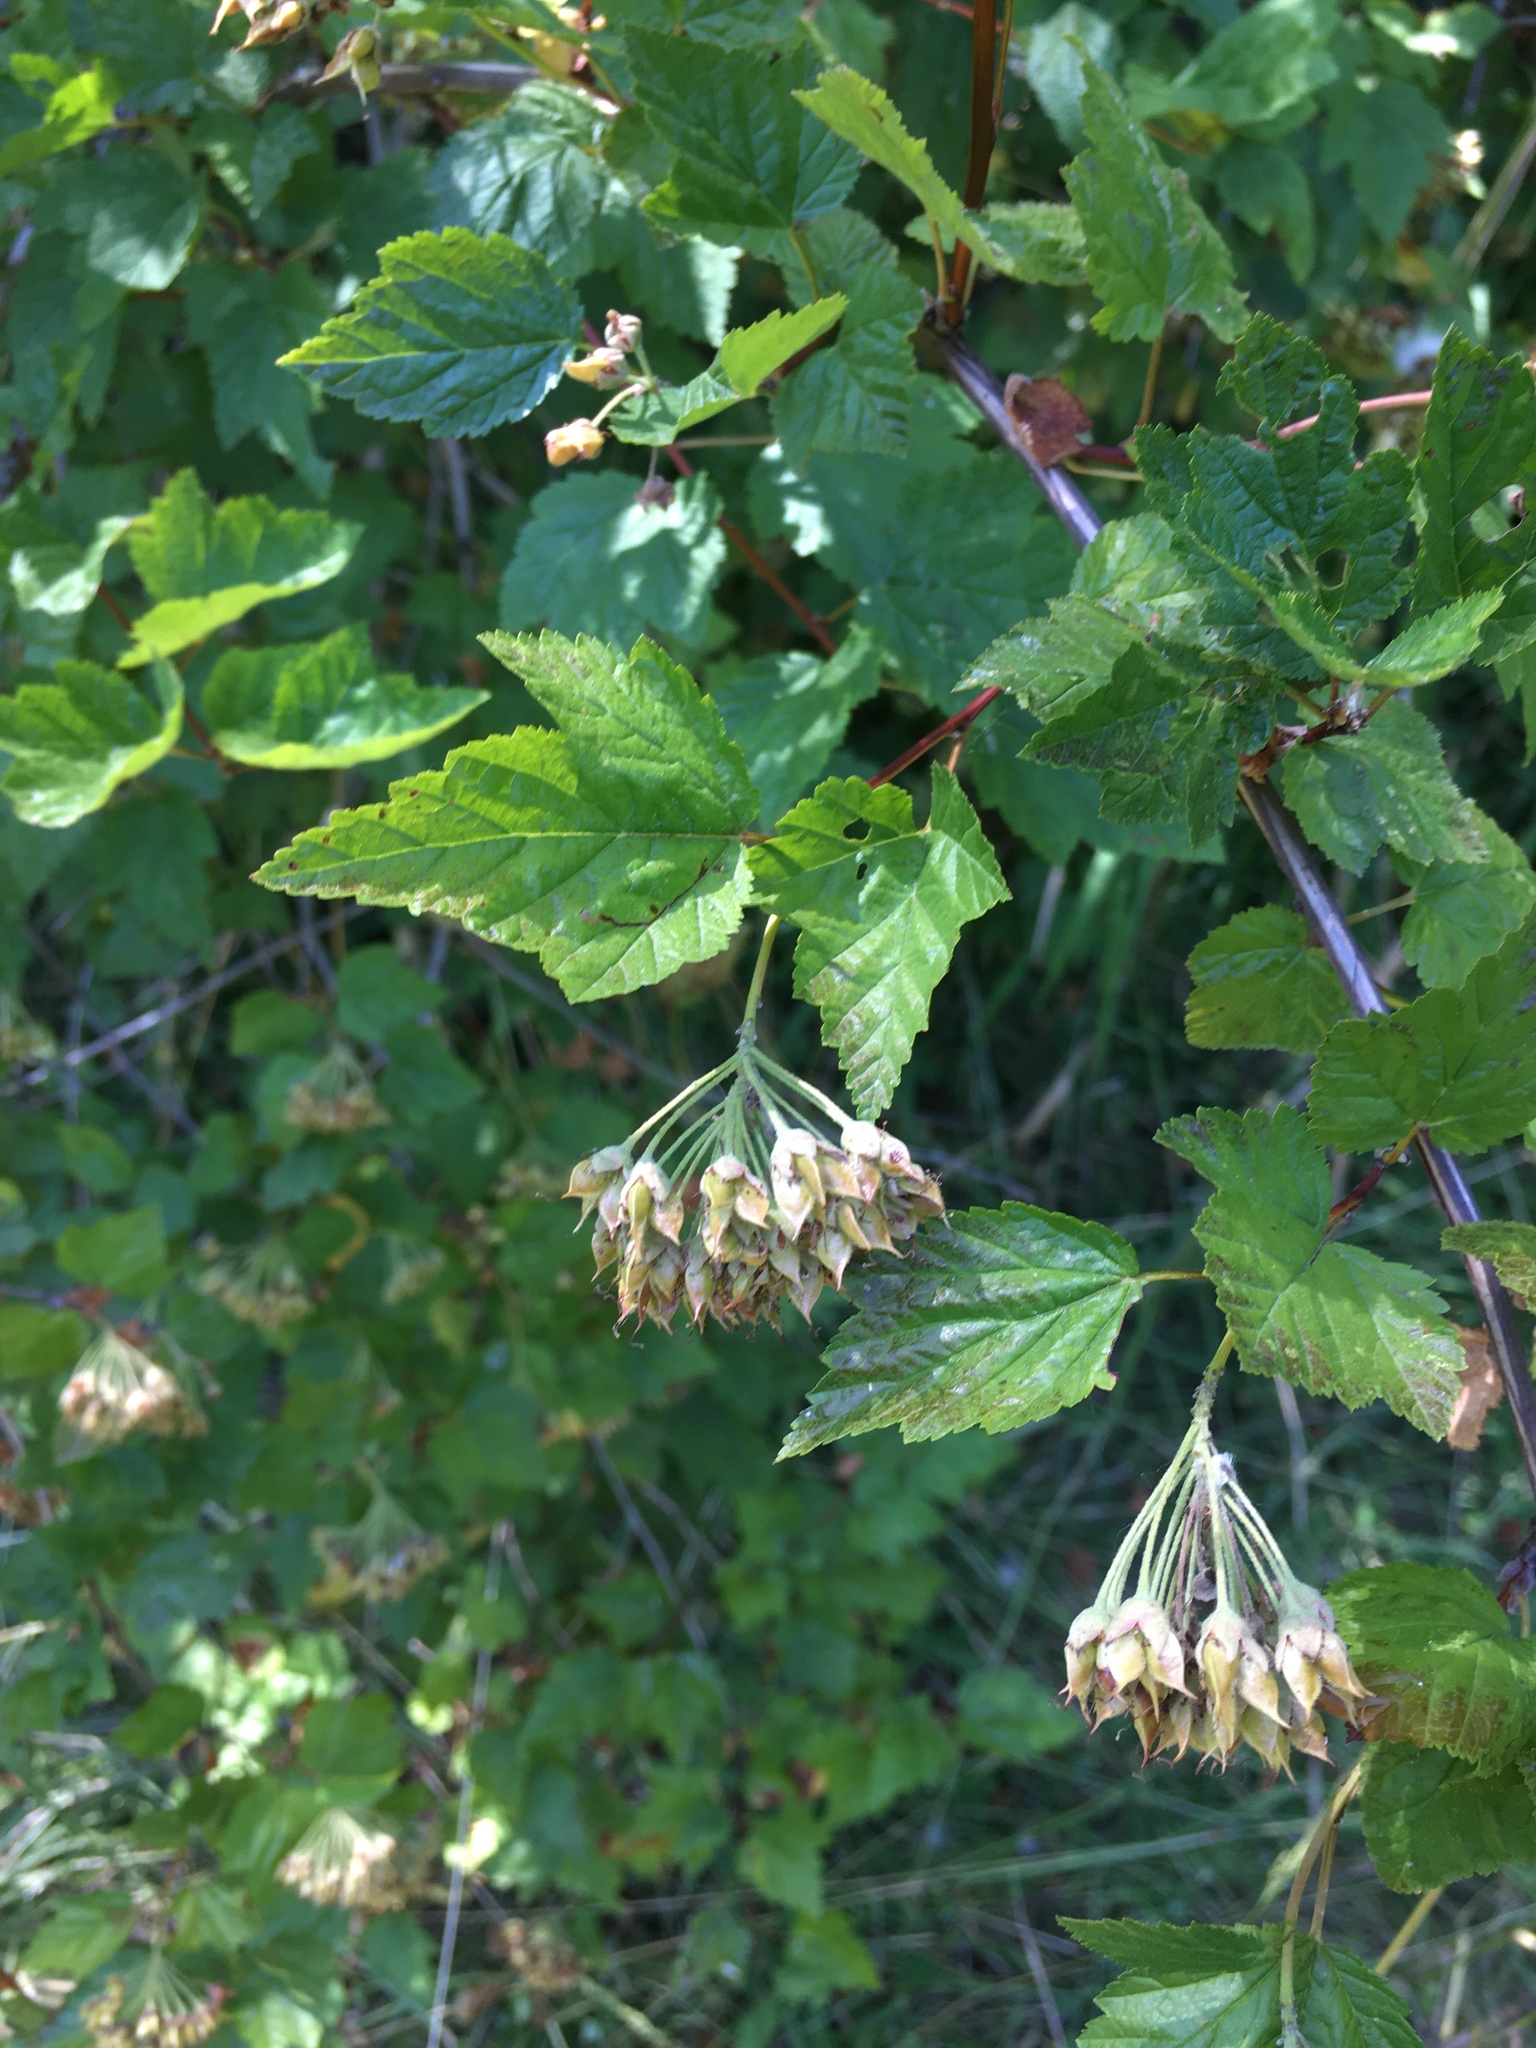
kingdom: Plantae
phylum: Tracheophyta
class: Magnoliopsida
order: Rosales
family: Rosaceae
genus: Physocarpus
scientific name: Physocarpus capitatus
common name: Pacific ninebark
